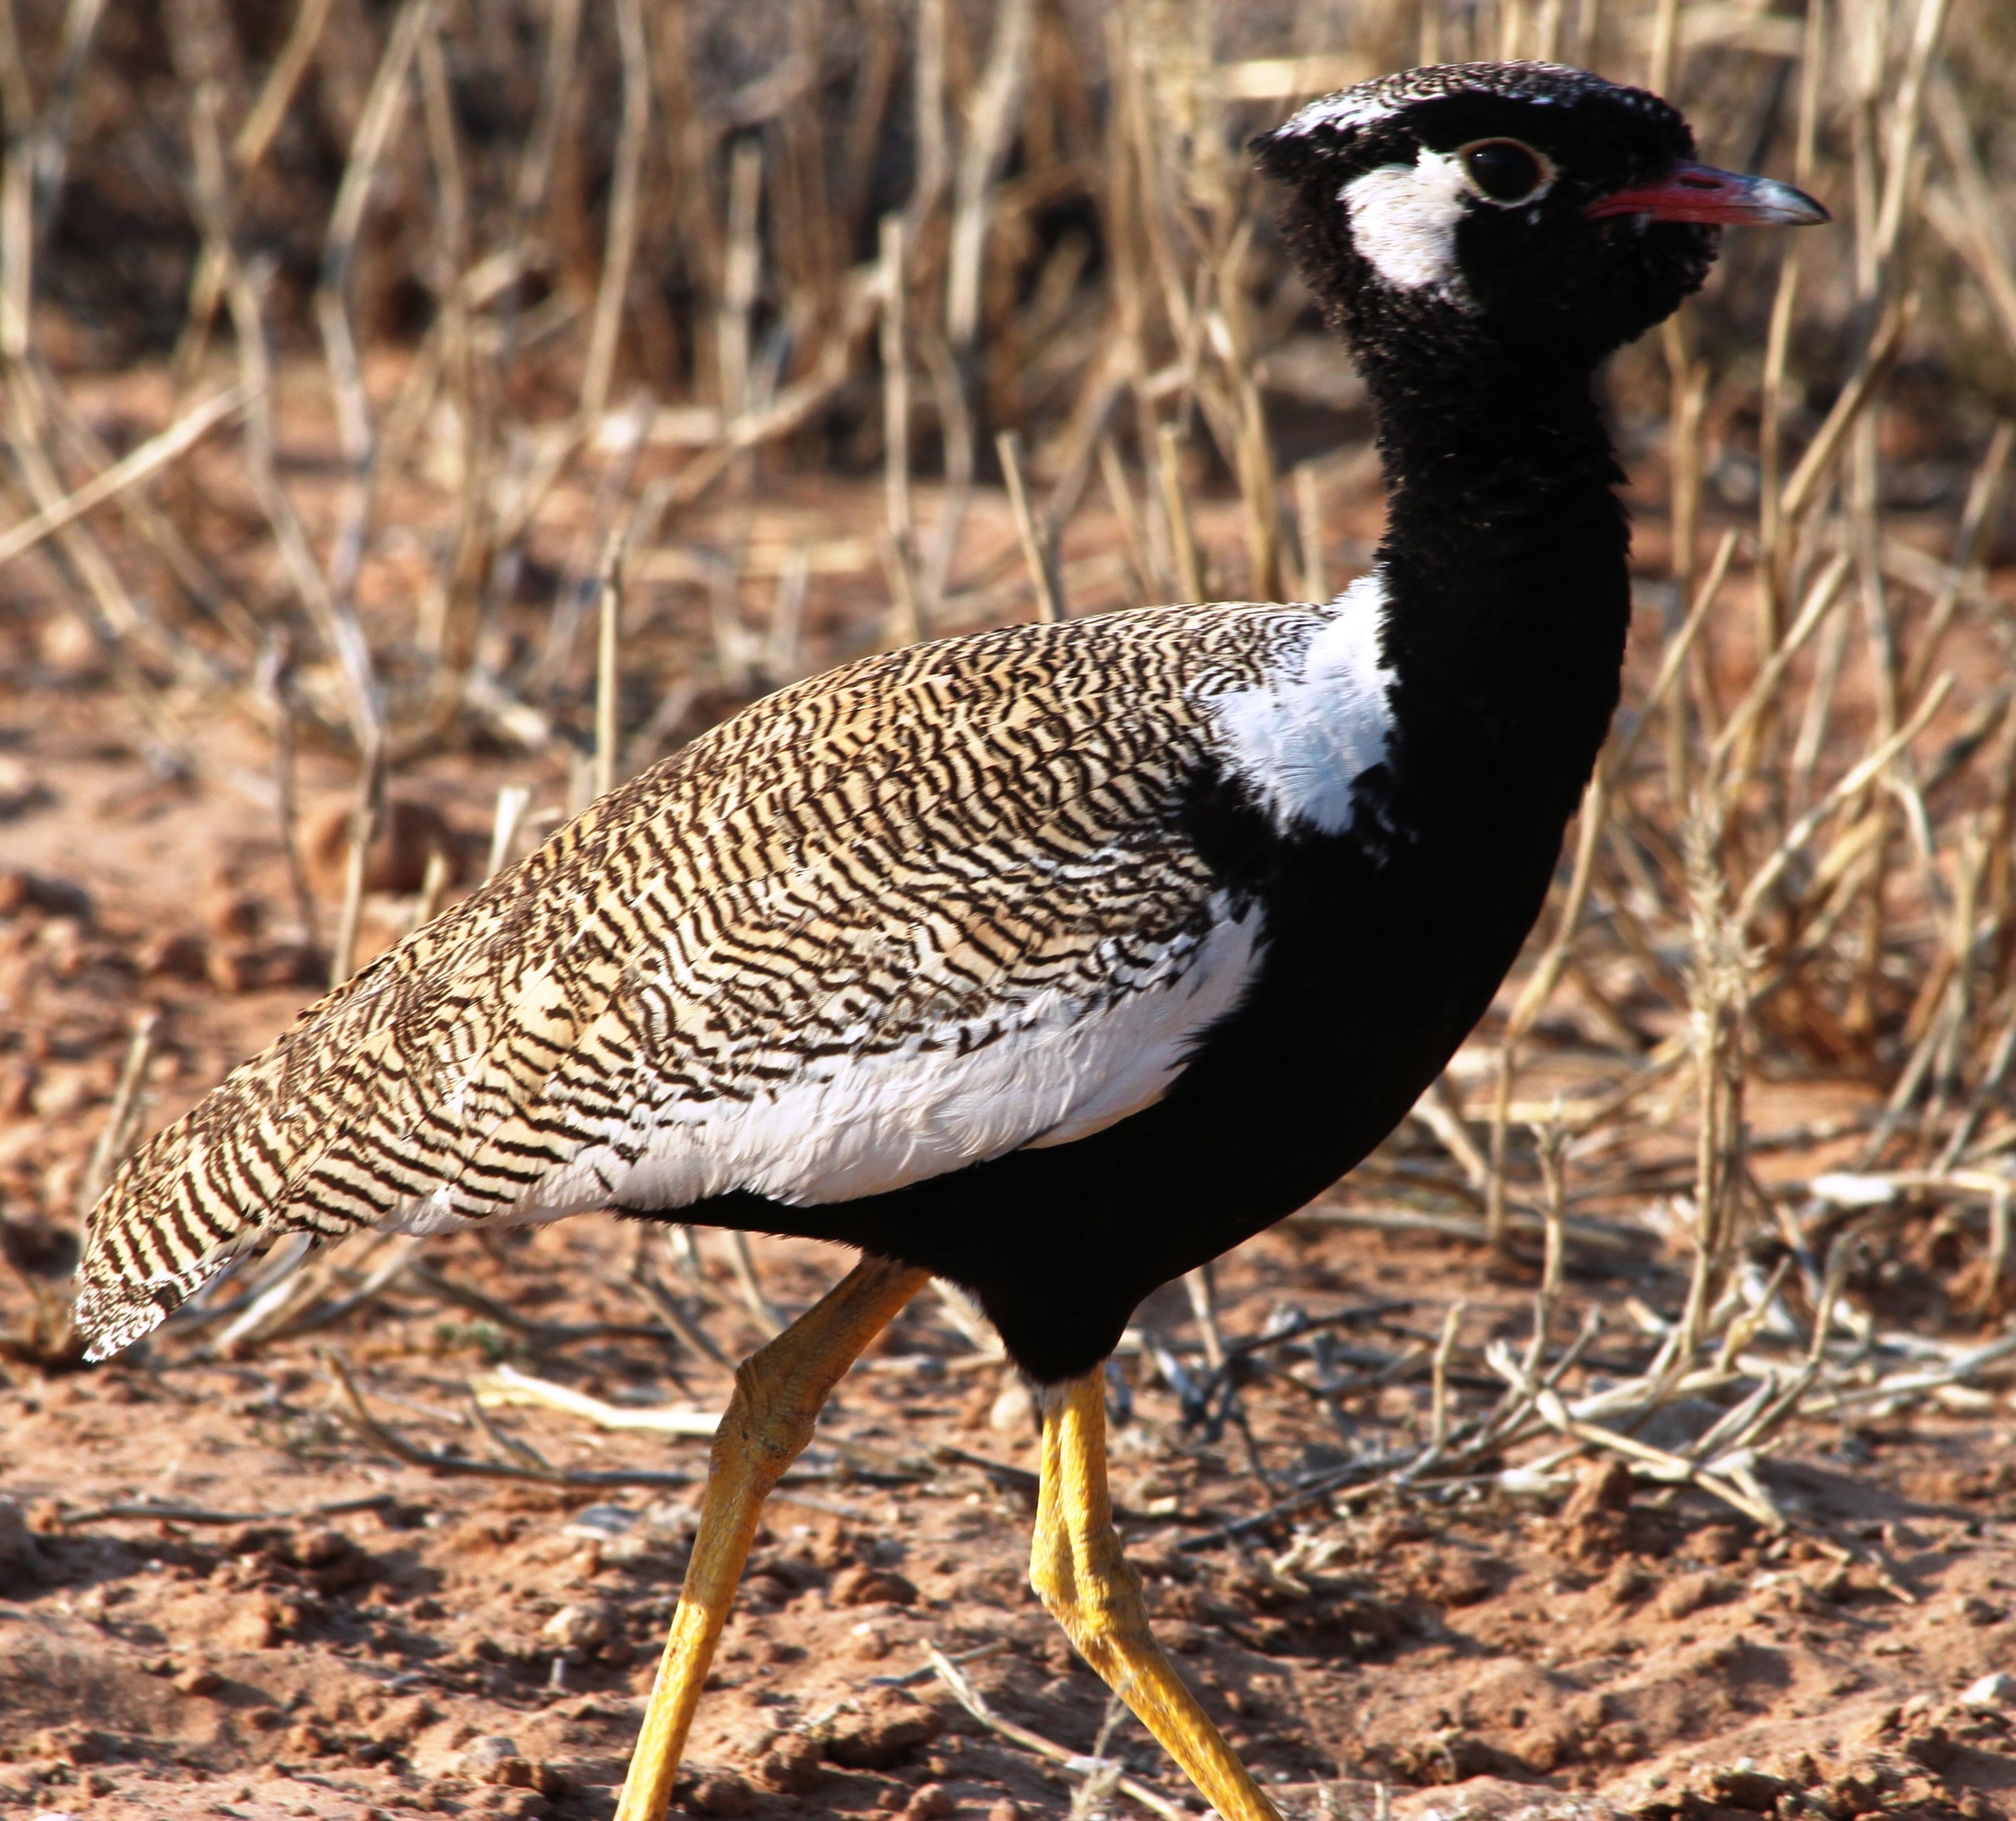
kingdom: Animalia
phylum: Chordata
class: Aves
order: Otidiformes
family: Otididae
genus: Afrotis
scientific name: Afrotis afraoides
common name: Northern black korhaan
